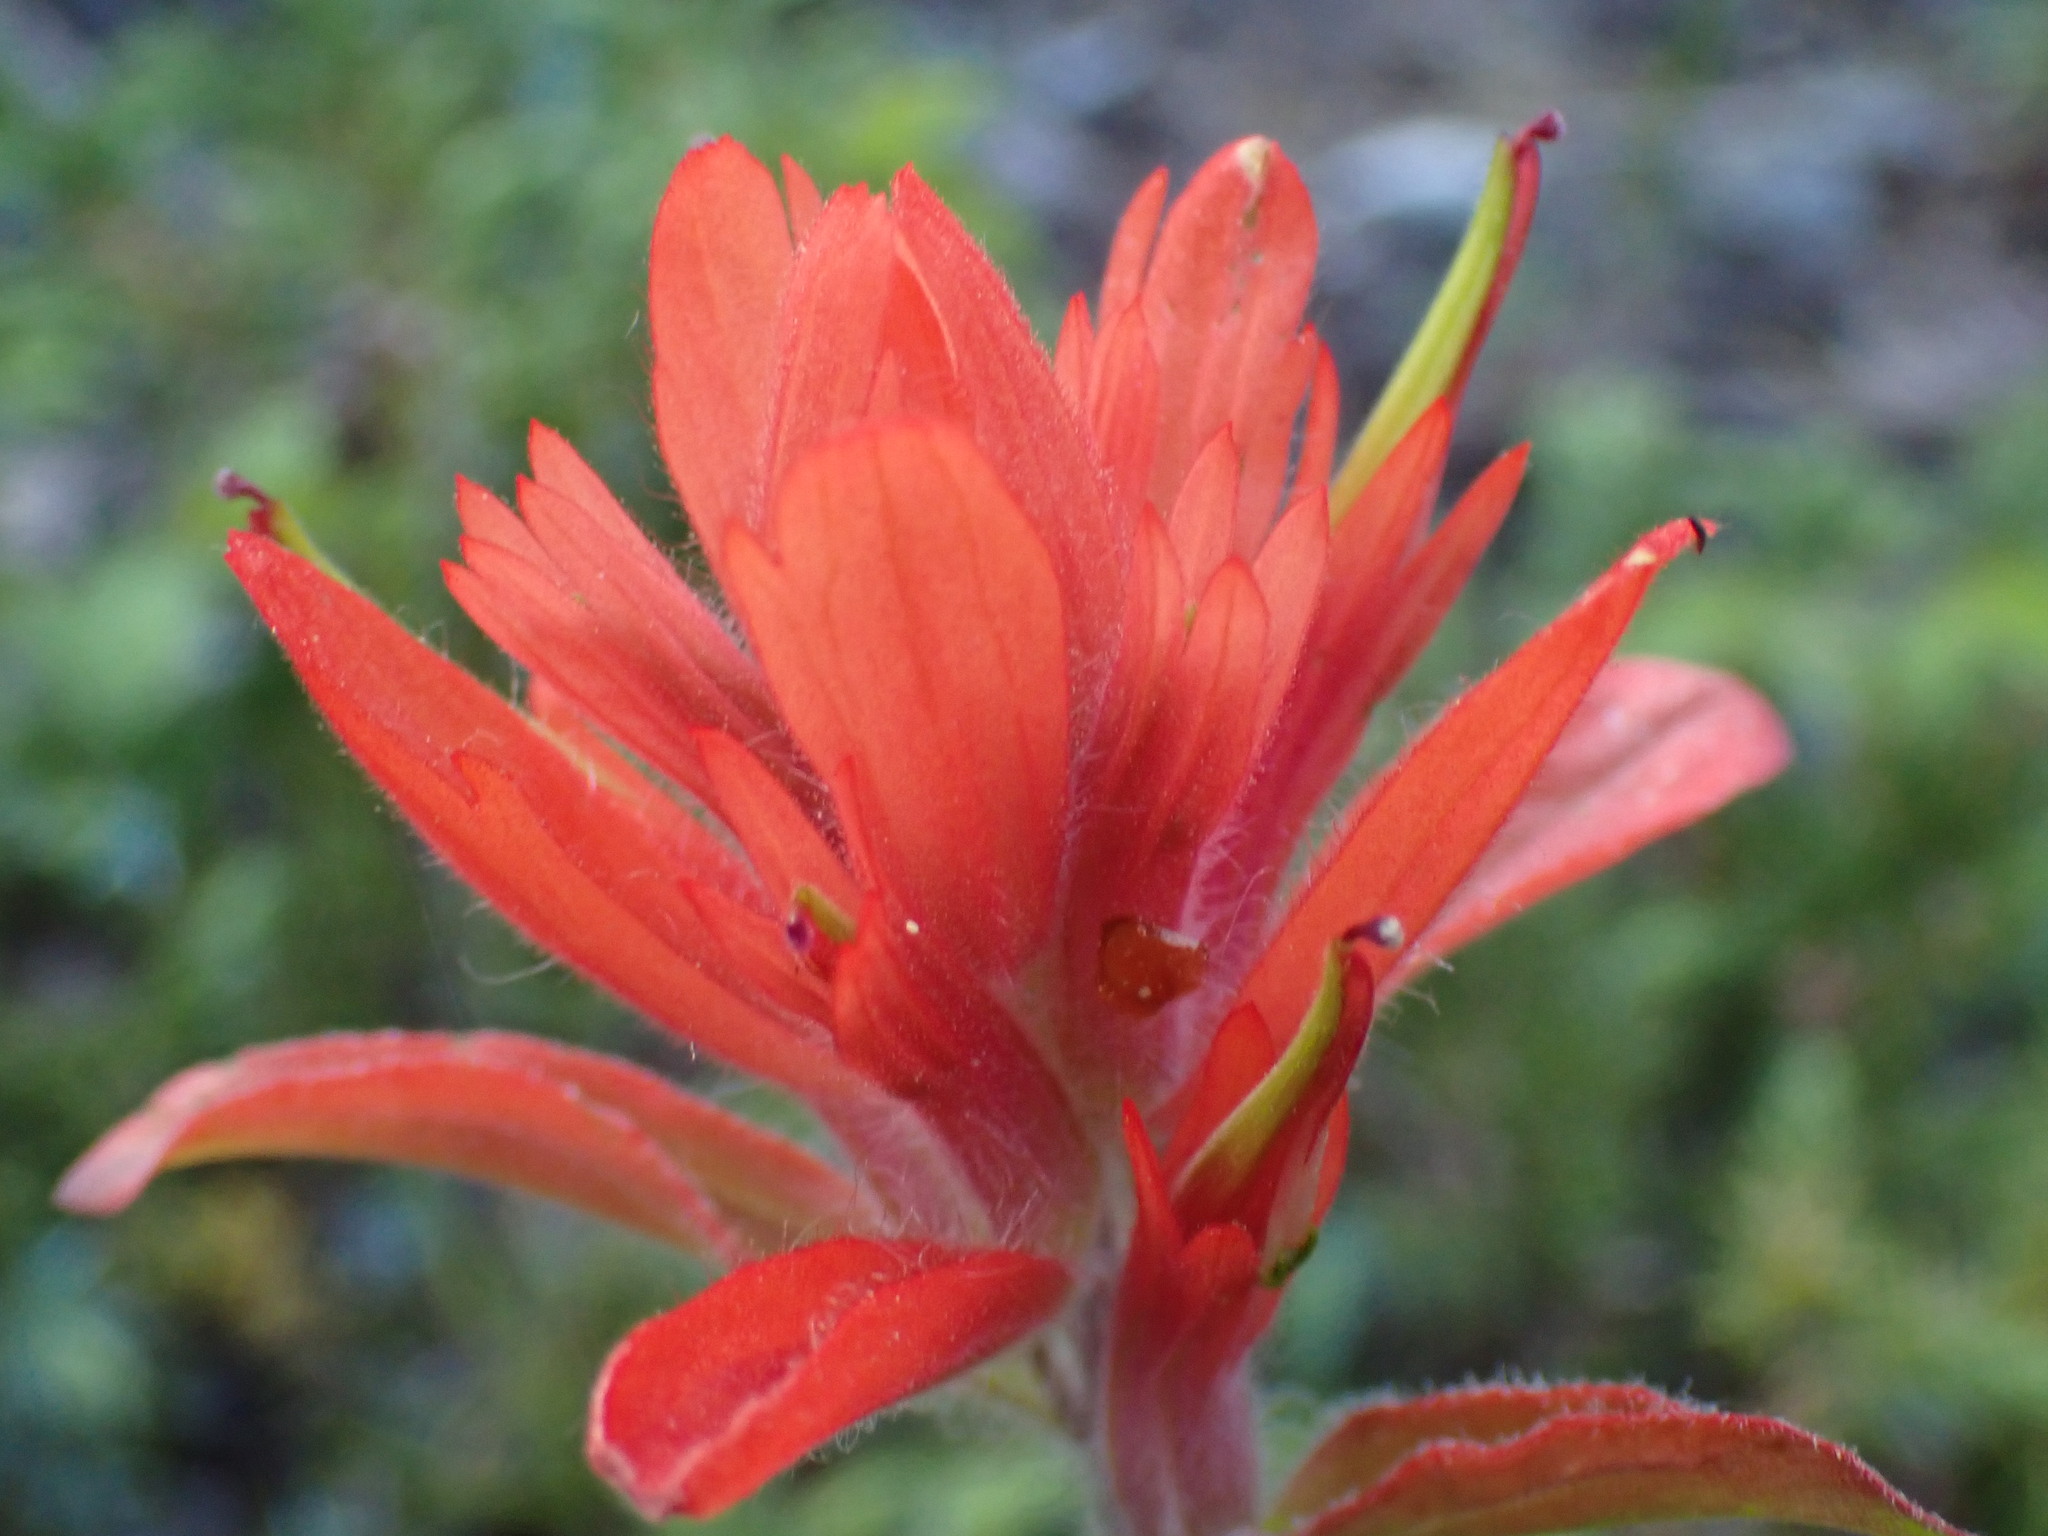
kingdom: Plantae
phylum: Tracheophyta
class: Magnoliopsida
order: Lamiales
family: Orobanchaceae
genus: Castilleja
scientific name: Castilleja miniata
